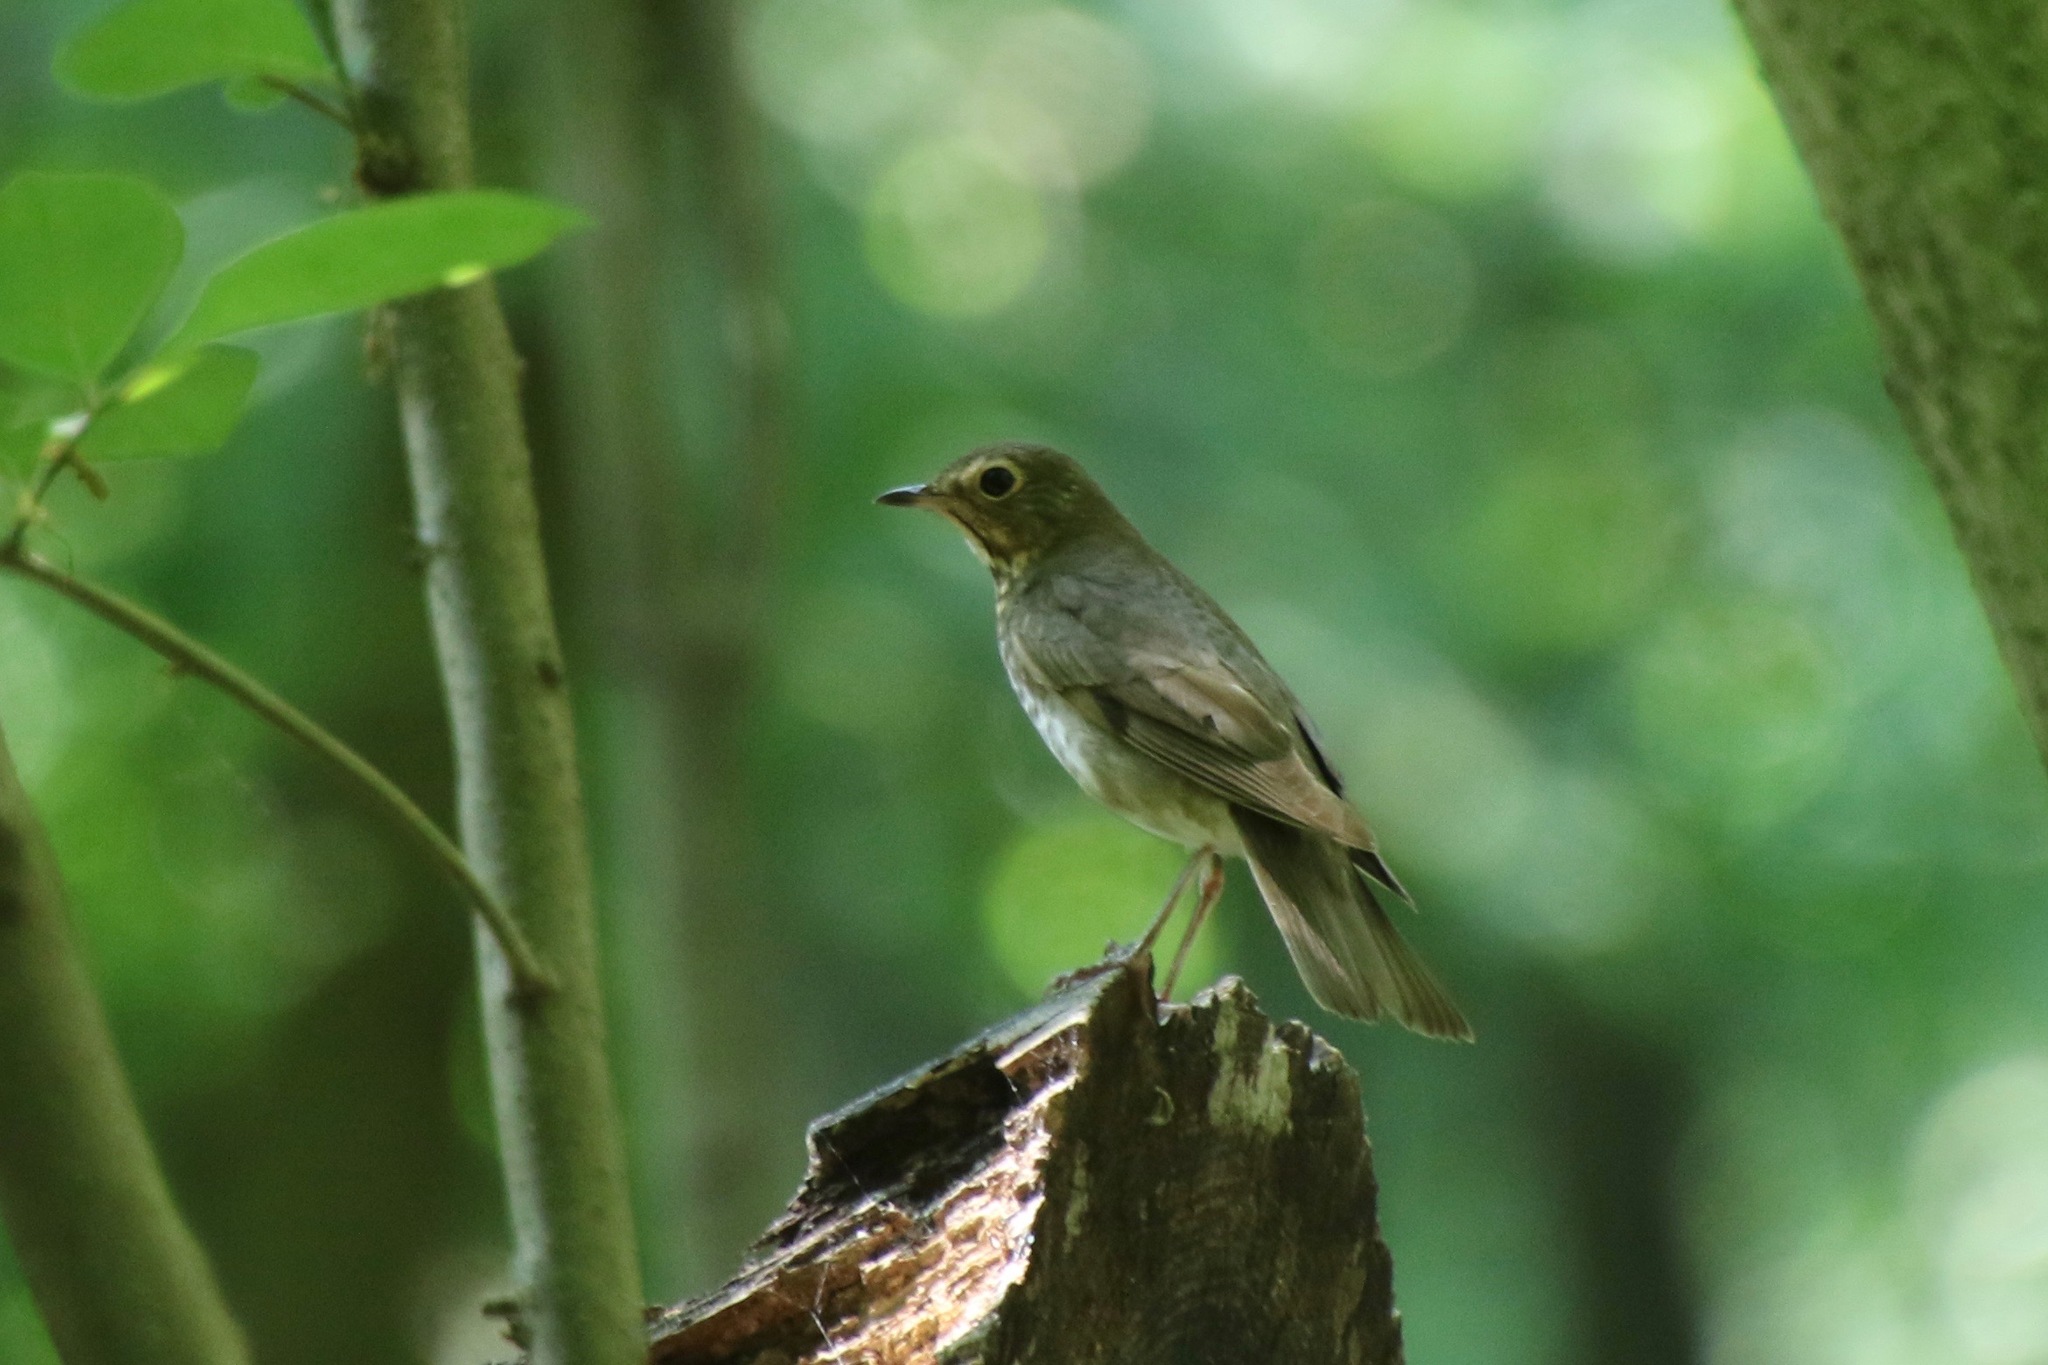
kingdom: Animalia
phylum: Chordata
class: Aves
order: Passeriformes
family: Turdidae
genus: Catharus
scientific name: Catharus ustulatus
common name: Swainson's thrush
